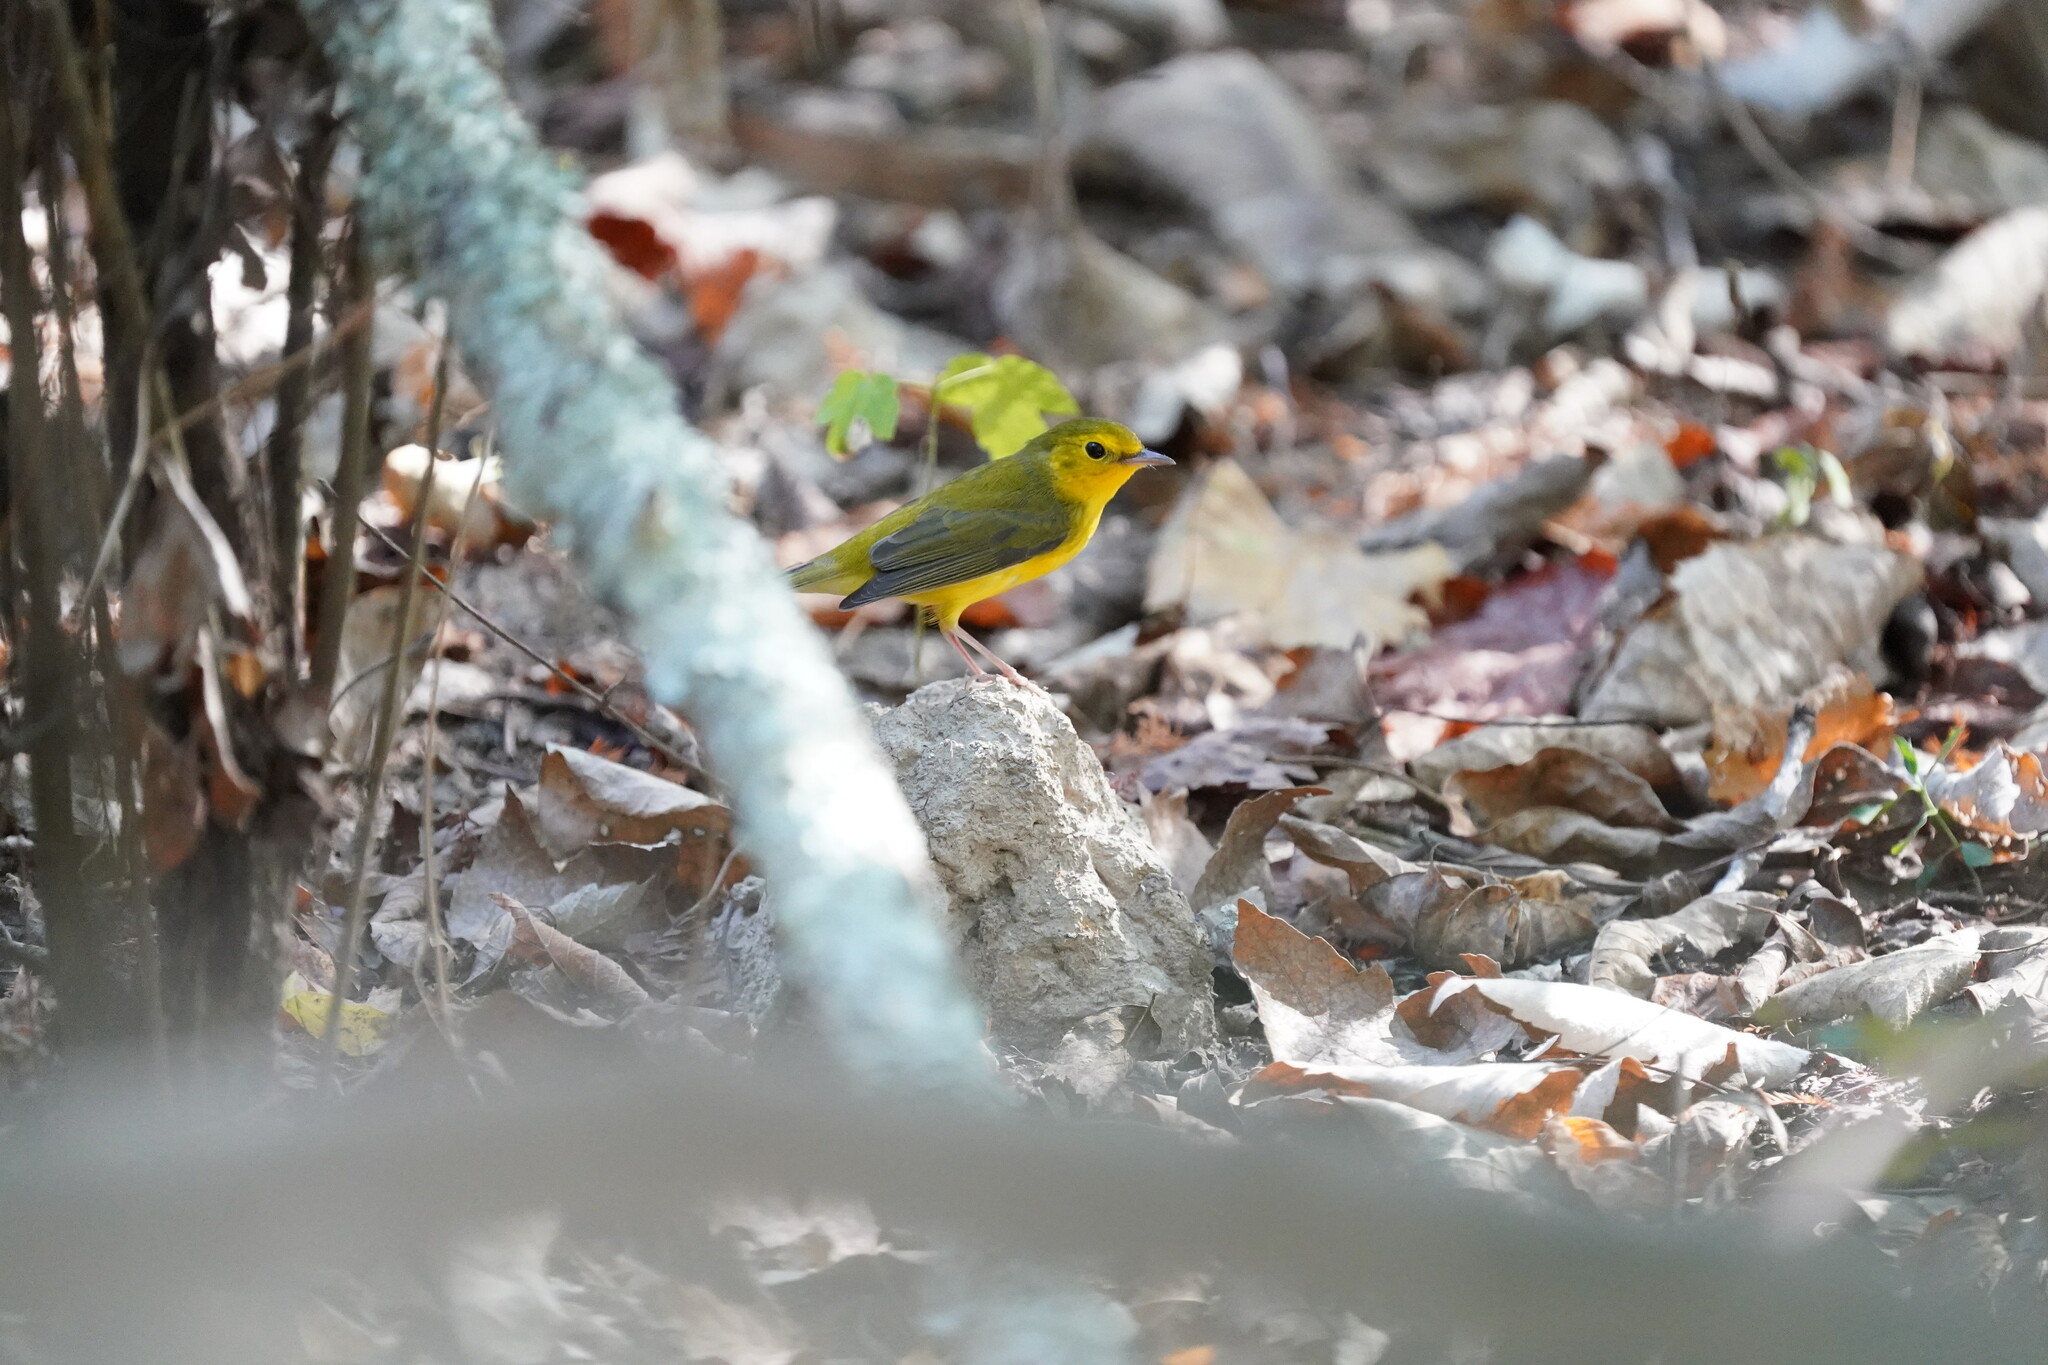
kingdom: Animalia
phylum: Chordata
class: Aves
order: Passeriformes
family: Parulidae
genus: Setophaga
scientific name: Setophaga citrina
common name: Hooded warbler
